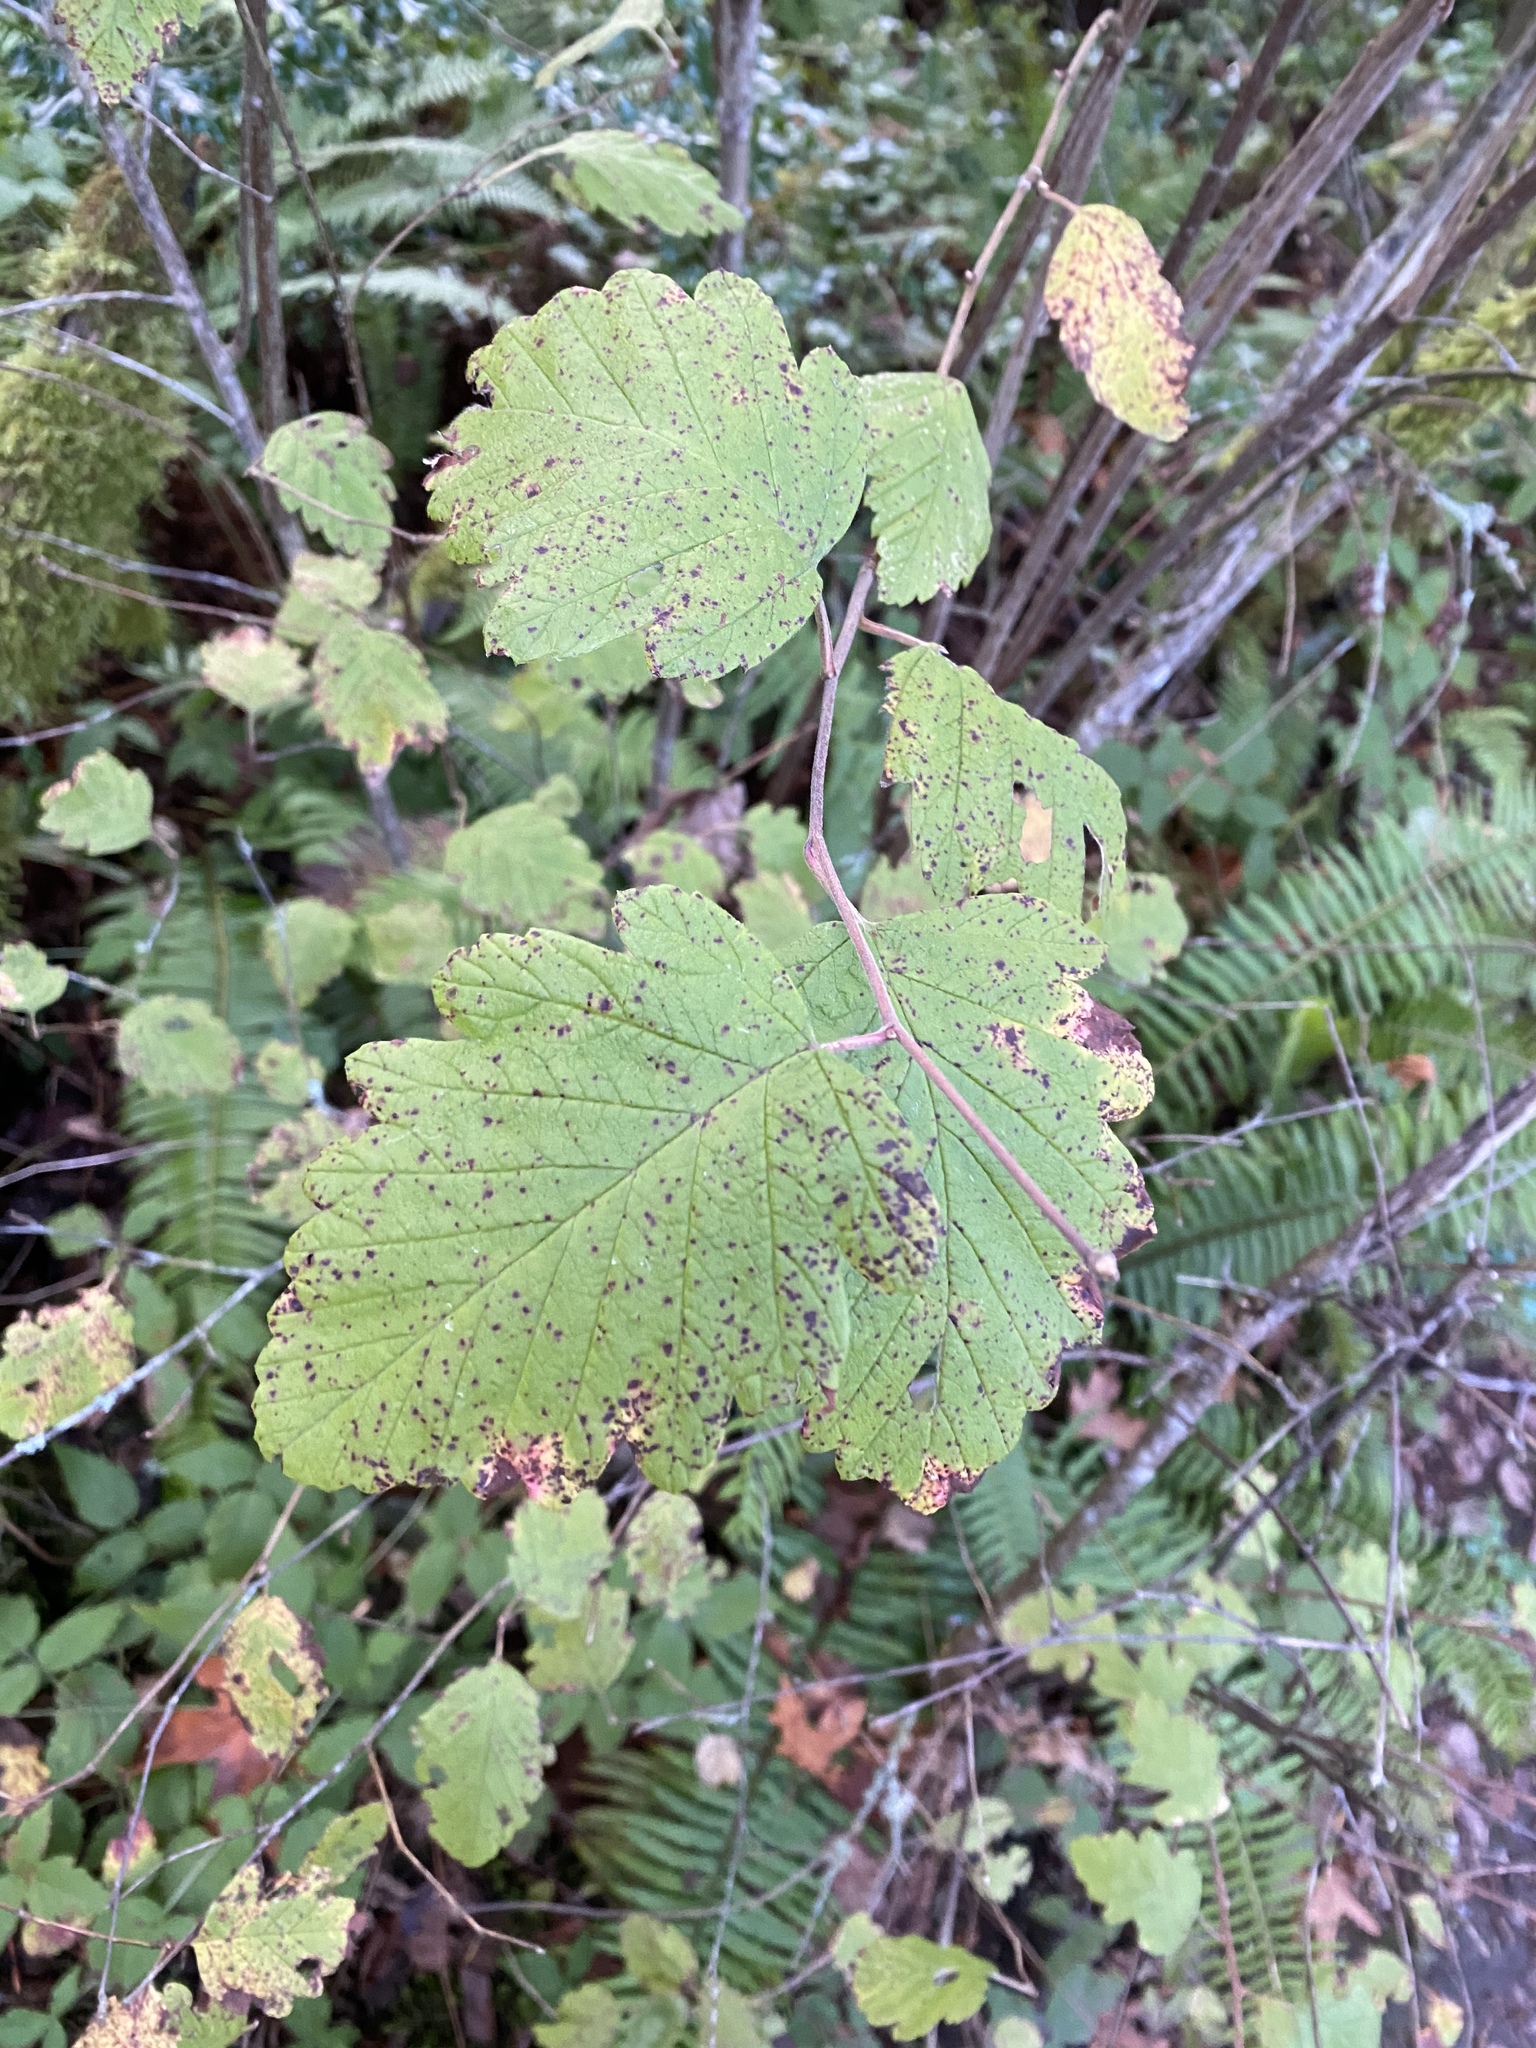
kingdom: Plantae
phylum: Tracheophyta
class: Magnoliopsida
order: Rosales
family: Rosaceae
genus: Holodiscus
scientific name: Holodiscus discolor
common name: Oceanspray
